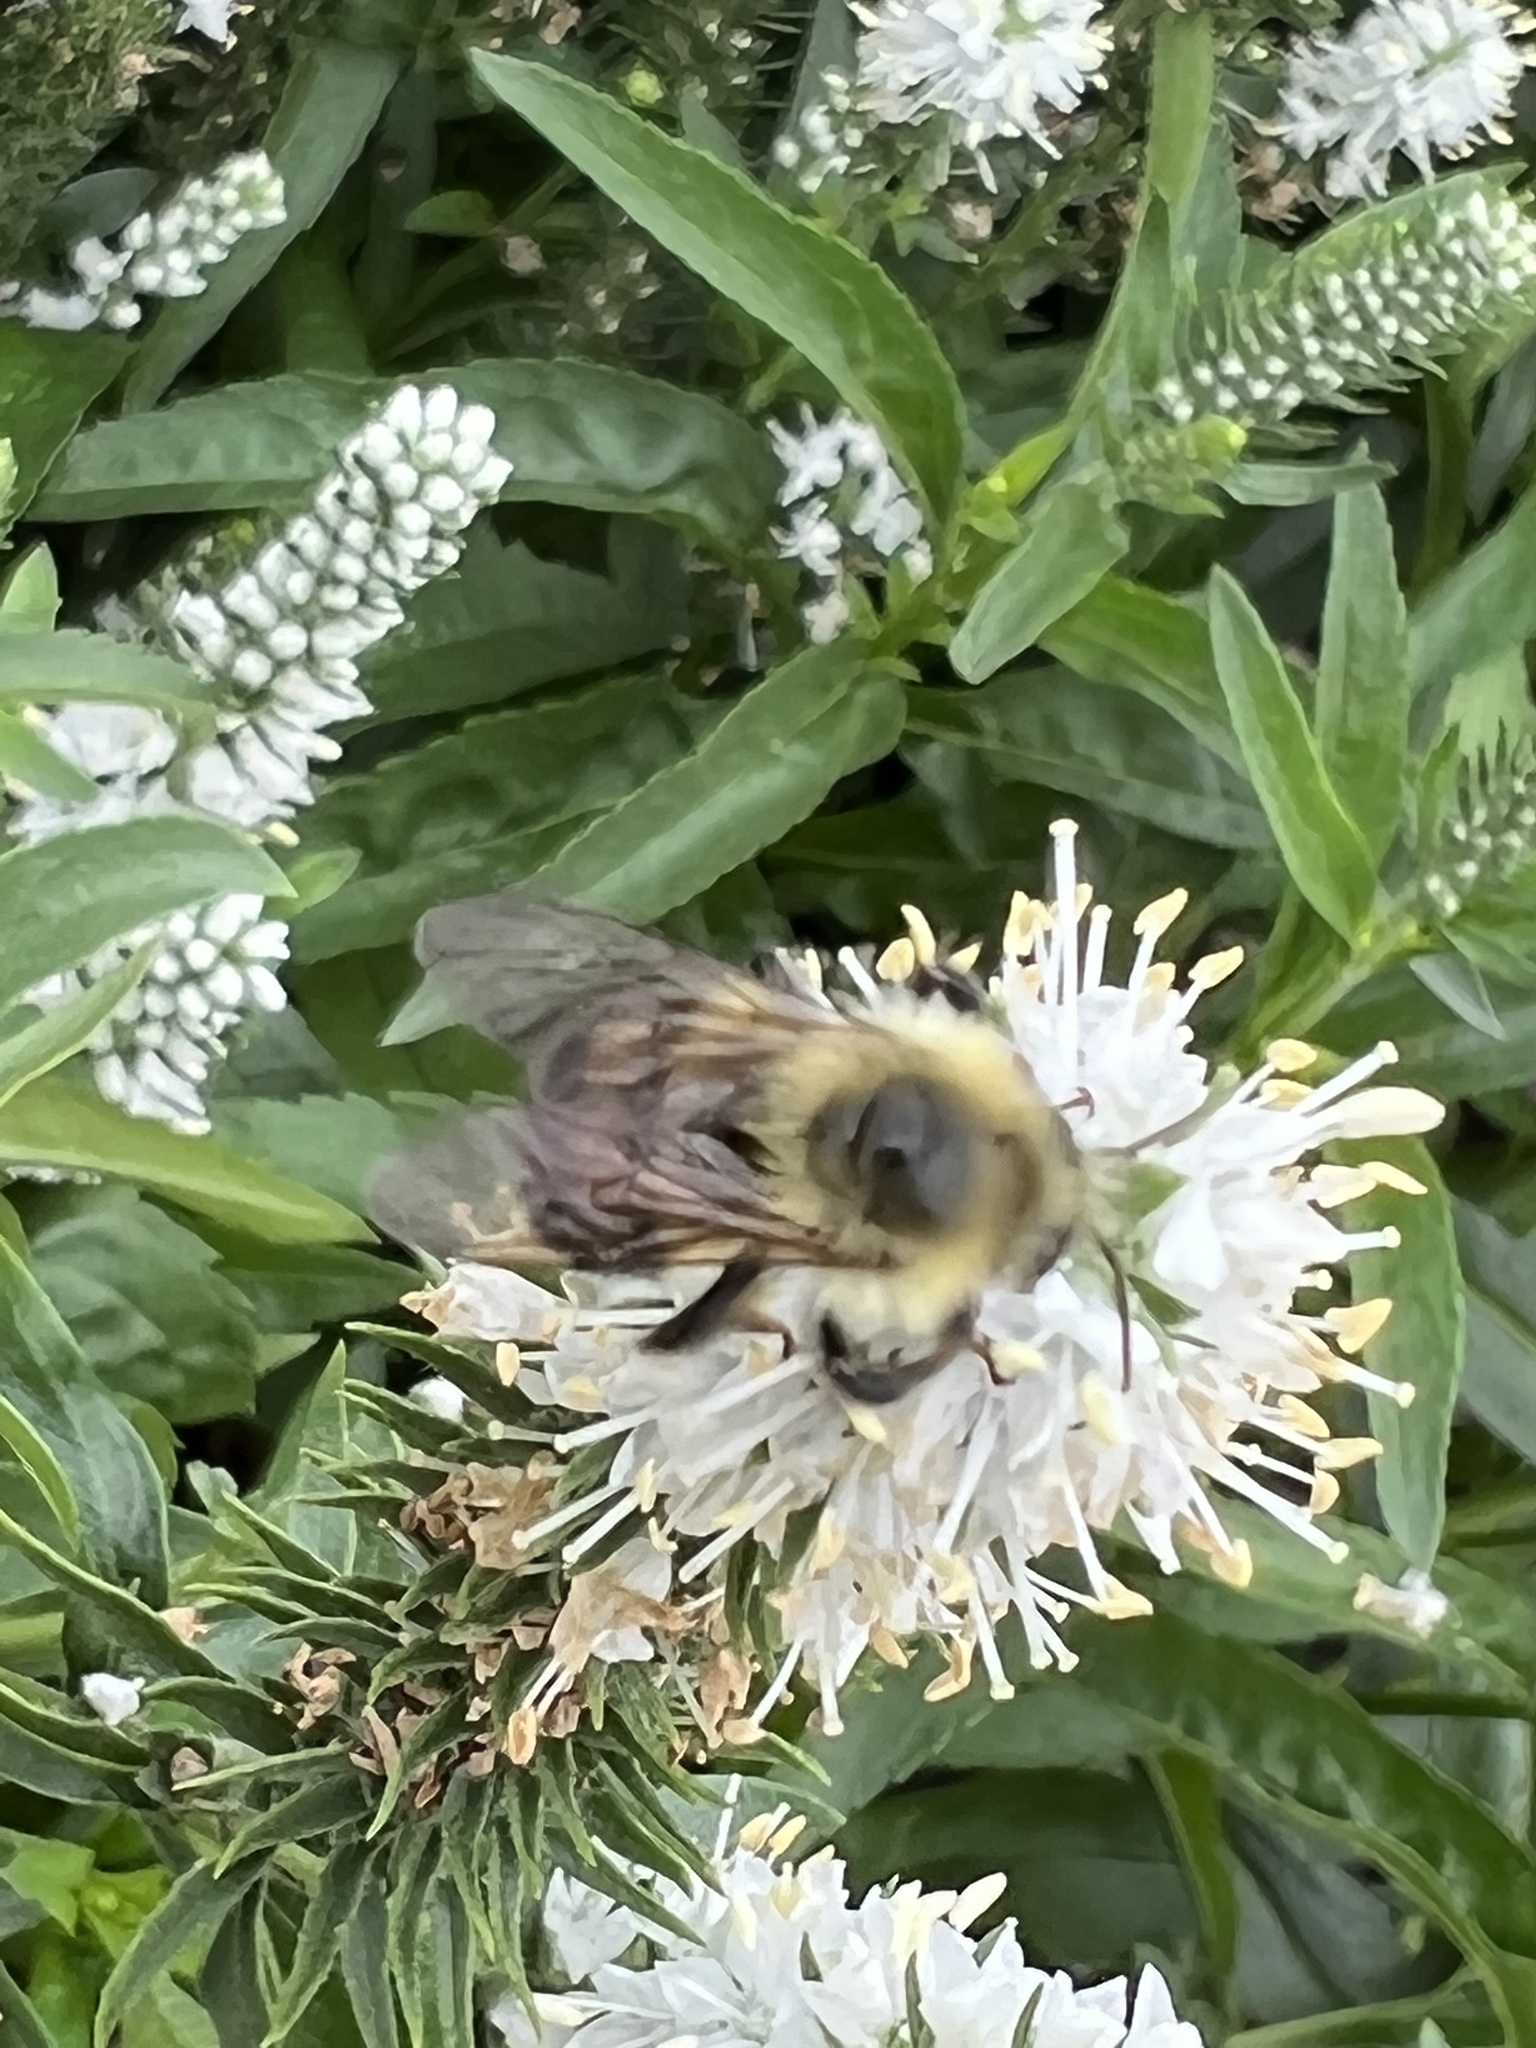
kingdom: Animalia
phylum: Arthropoda
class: Insecta
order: Hymenoptera
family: Apidae
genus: Bombus
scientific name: Bombus bimaculatus
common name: Two-spotted bumble bee
